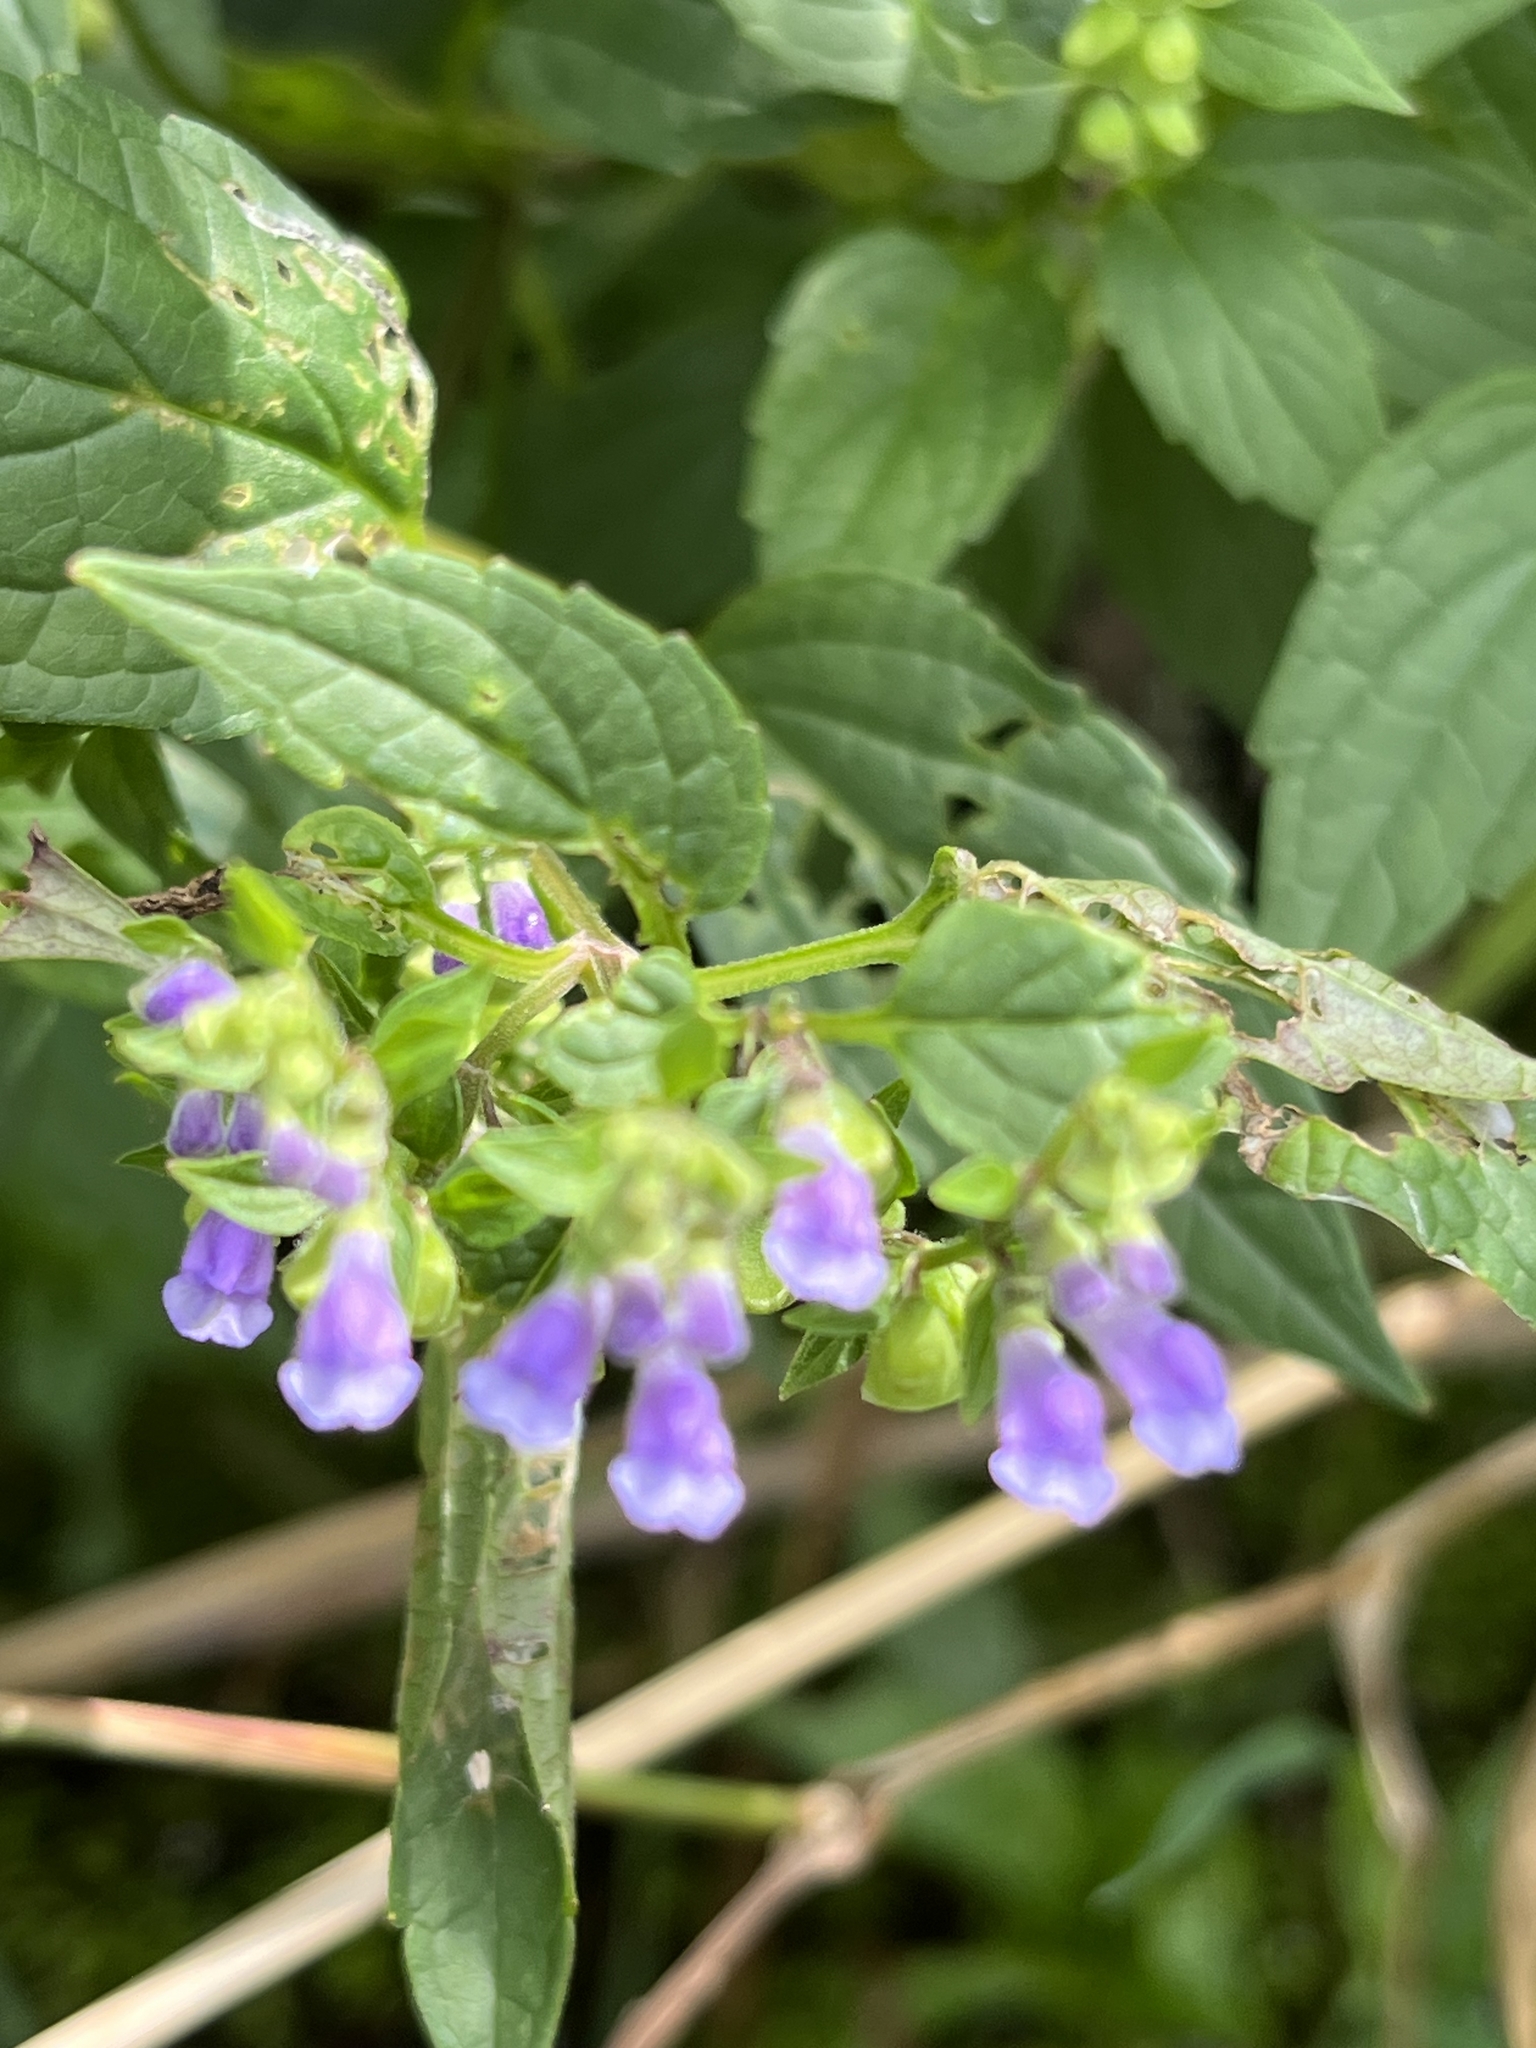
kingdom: Plantae
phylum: Tracheophyta
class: Magnoliopsida
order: Lamiales
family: Lamiaceae
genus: Scutellaria
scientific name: Scutellaria lateriflora
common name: Blue skullcap
